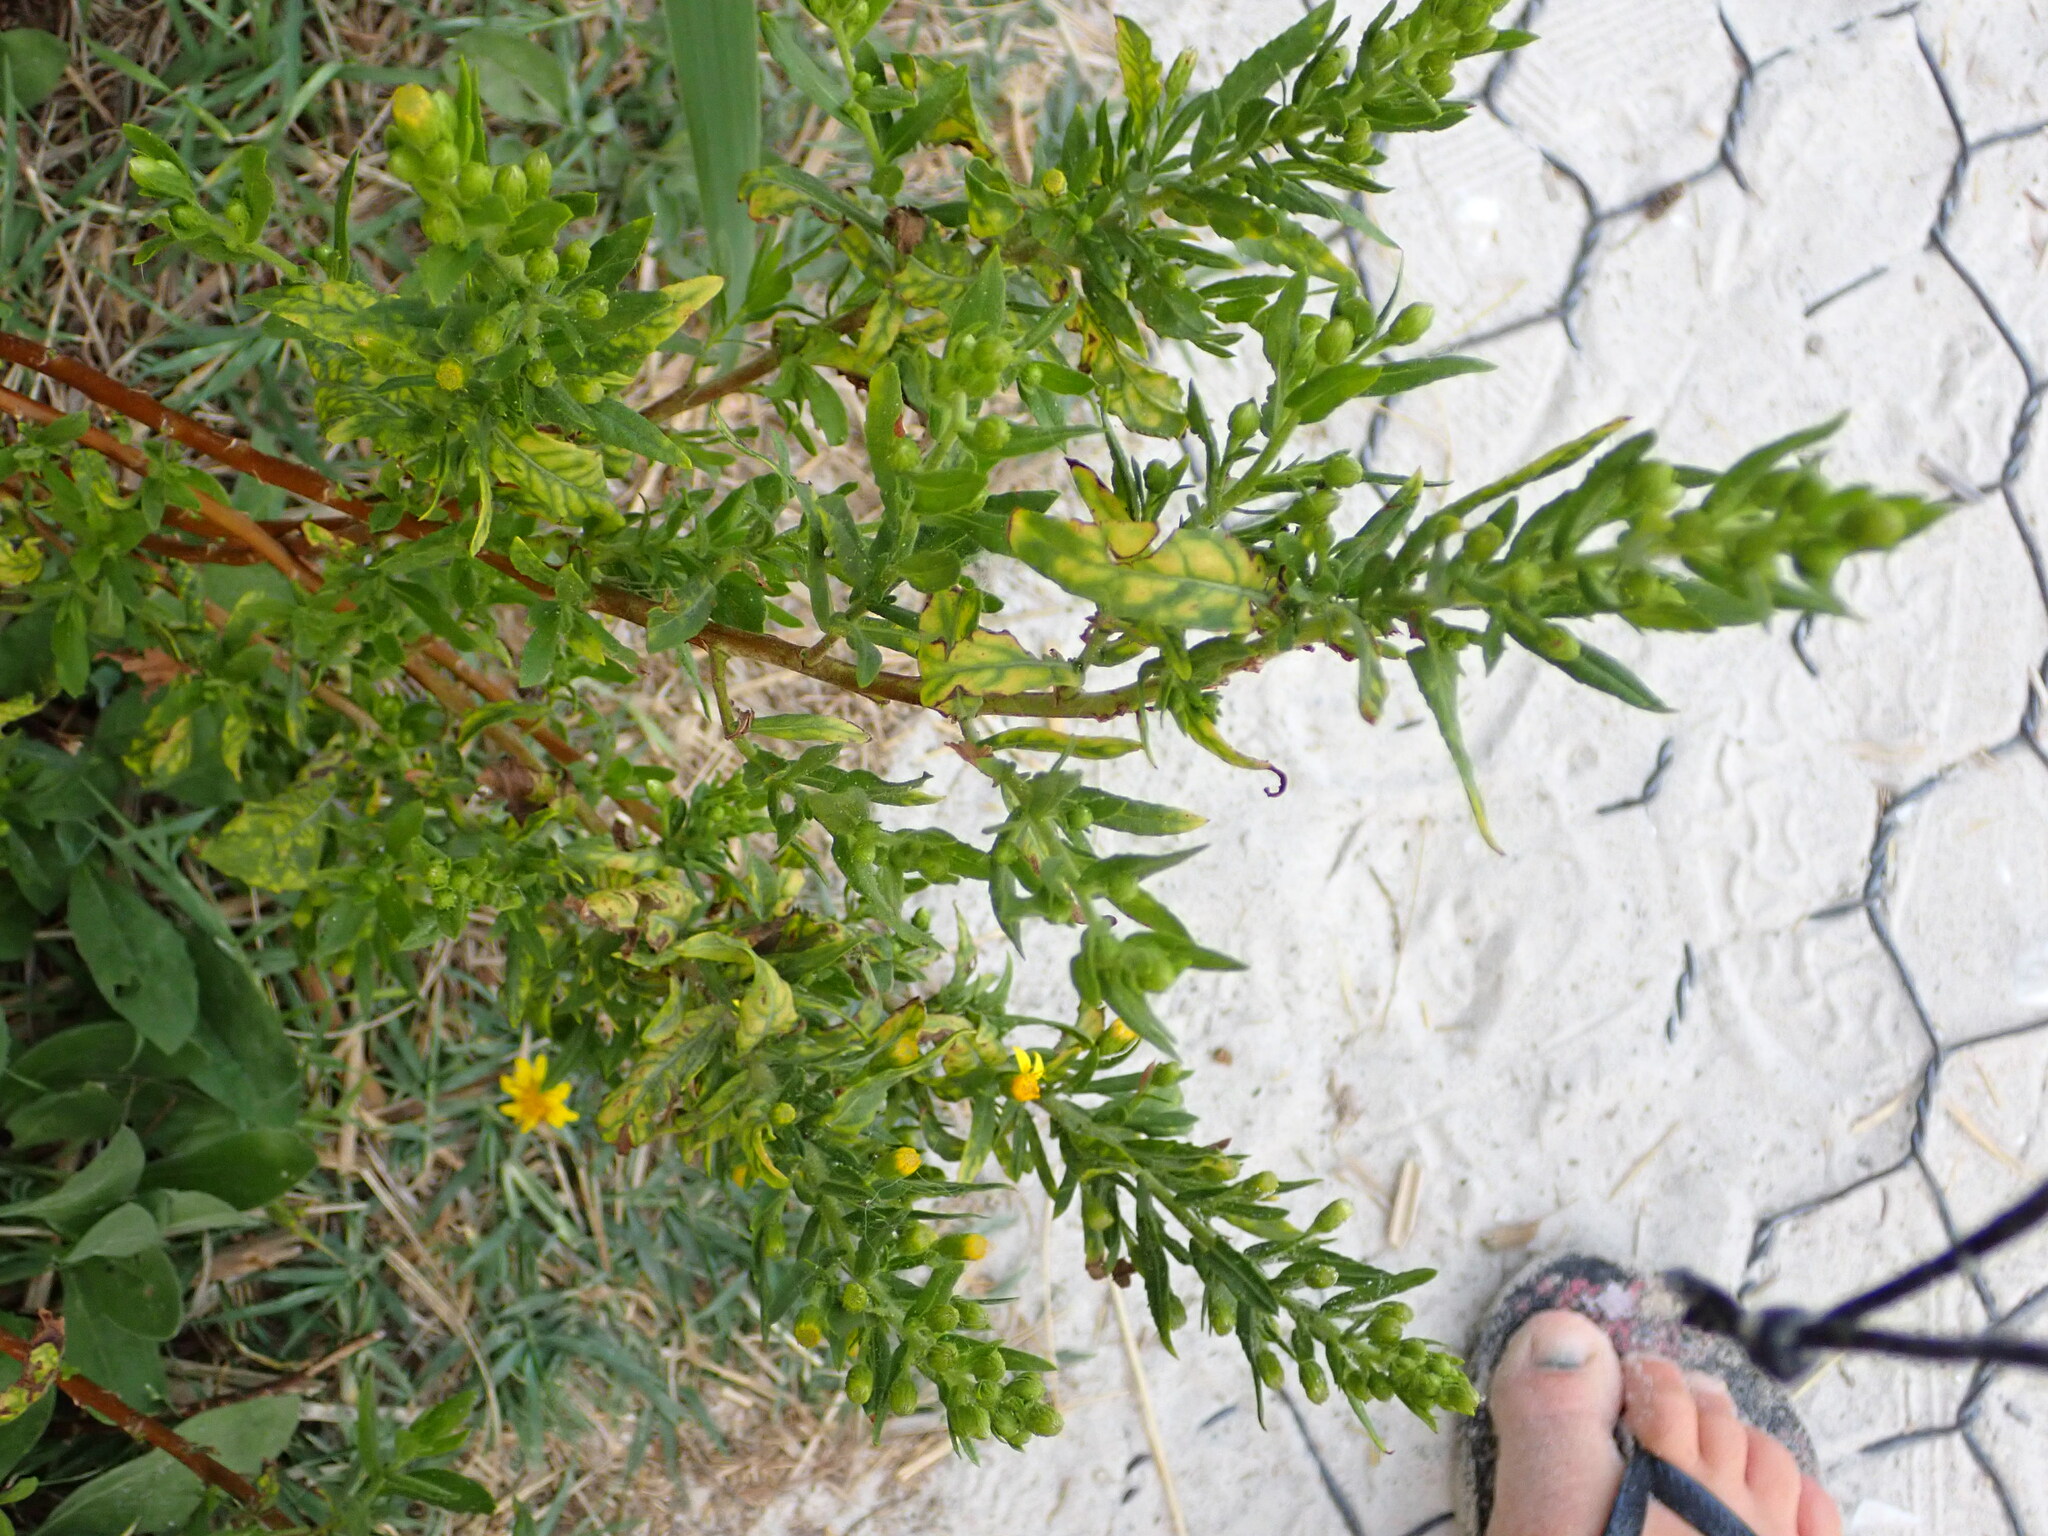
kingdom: Plantae
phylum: Tracheophyta
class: Magnoliopsida
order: Asterales
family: Asteraceae
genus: Dittrichia
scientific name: Dittrichia viscosa
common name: Woody fleabane
